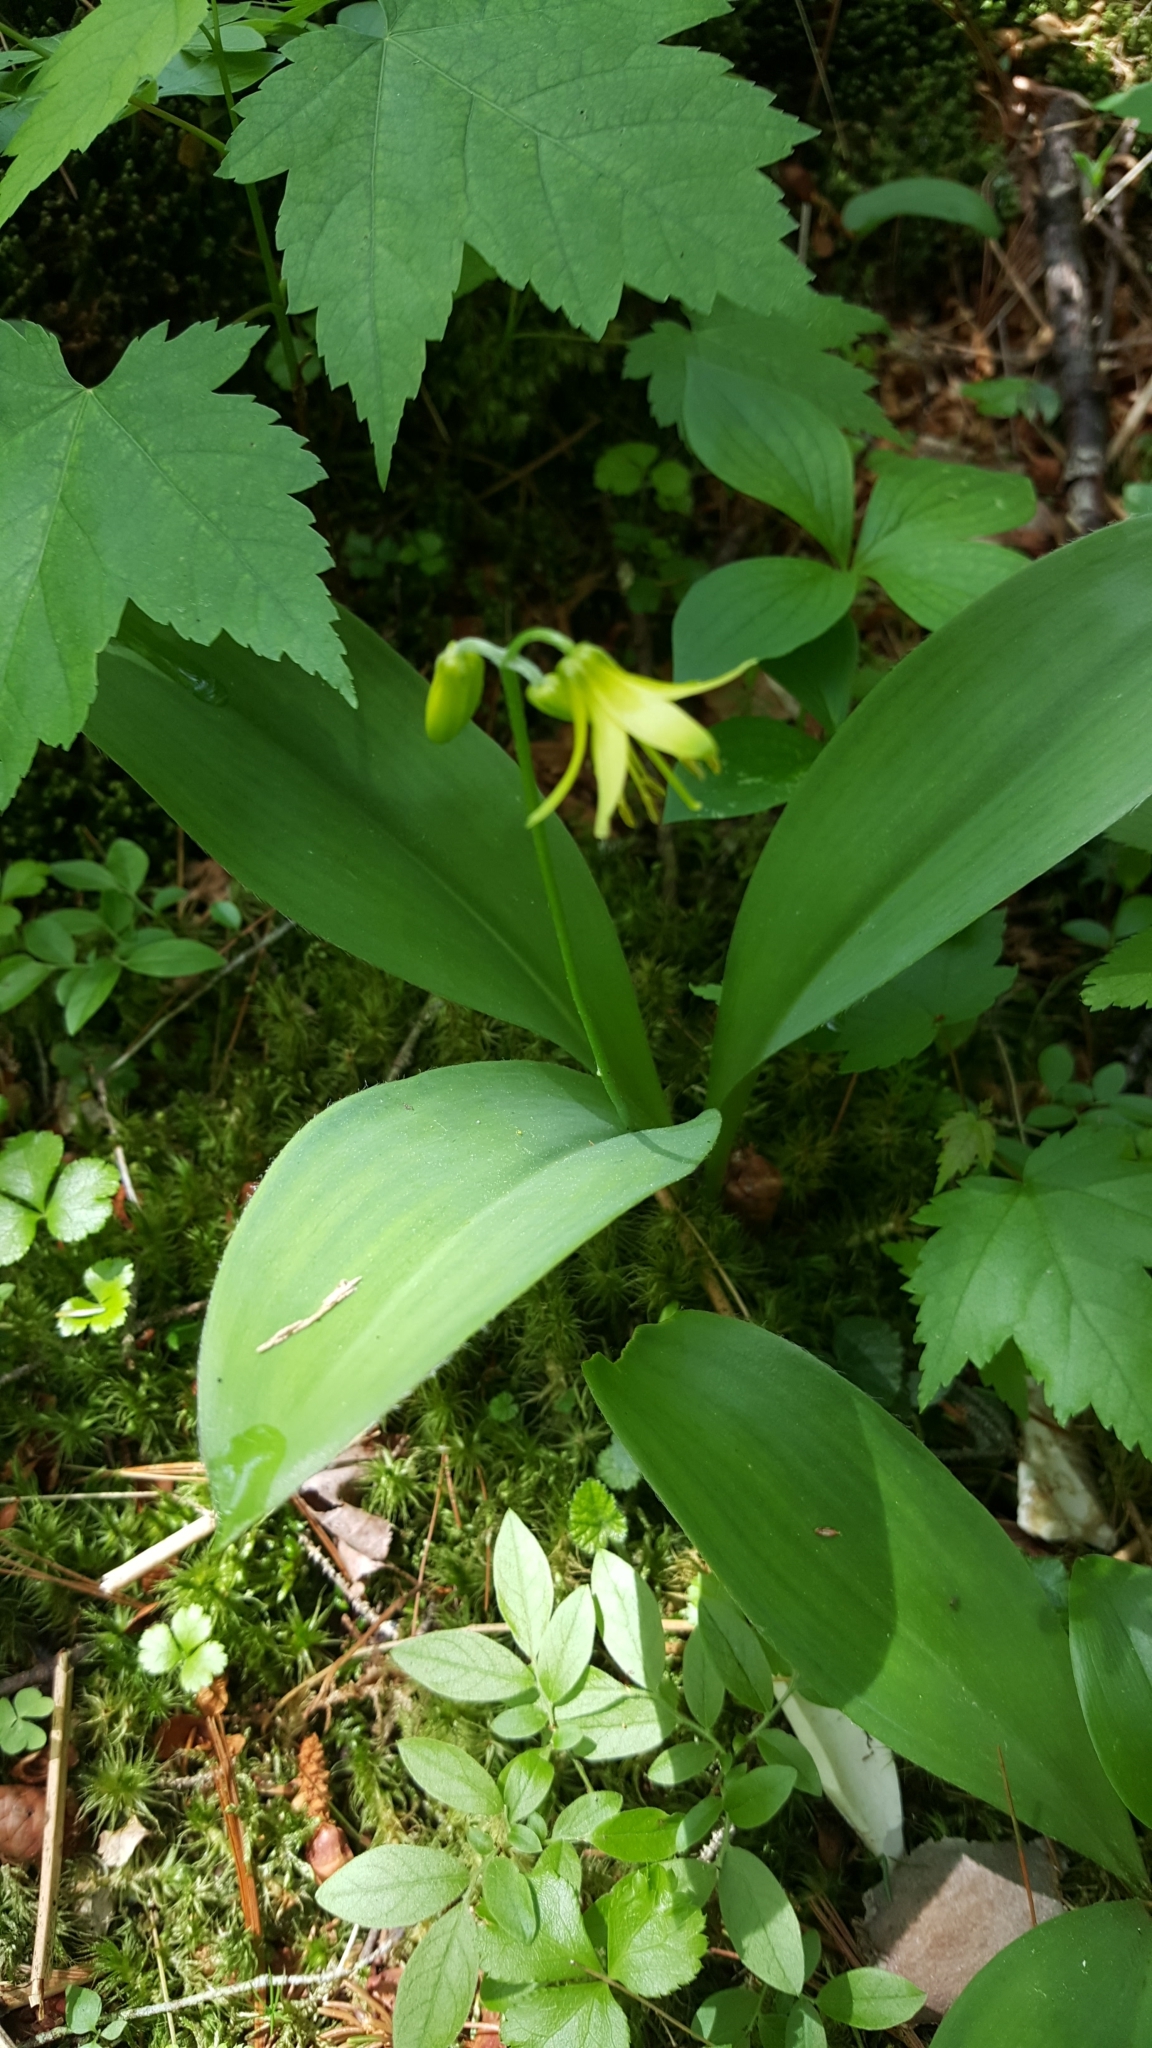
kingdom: Plantae
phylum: Tracheophyta
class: Liliopsida
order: Liliales
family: Liliaceae
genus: Clintonia
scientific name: Clintonia borealis
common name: Yellow clintonia
